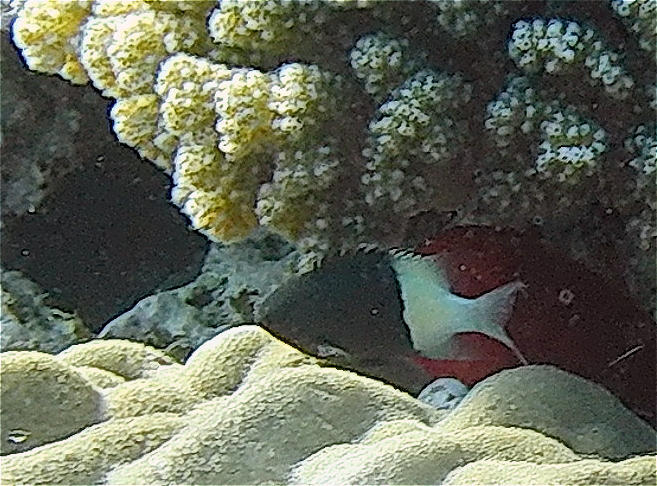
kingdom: Animalia
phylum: Chordata
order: Perciformes
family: Pomacentridae
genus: Chromis
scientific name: Chromis dimidiata
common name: Half-and-half chromis
